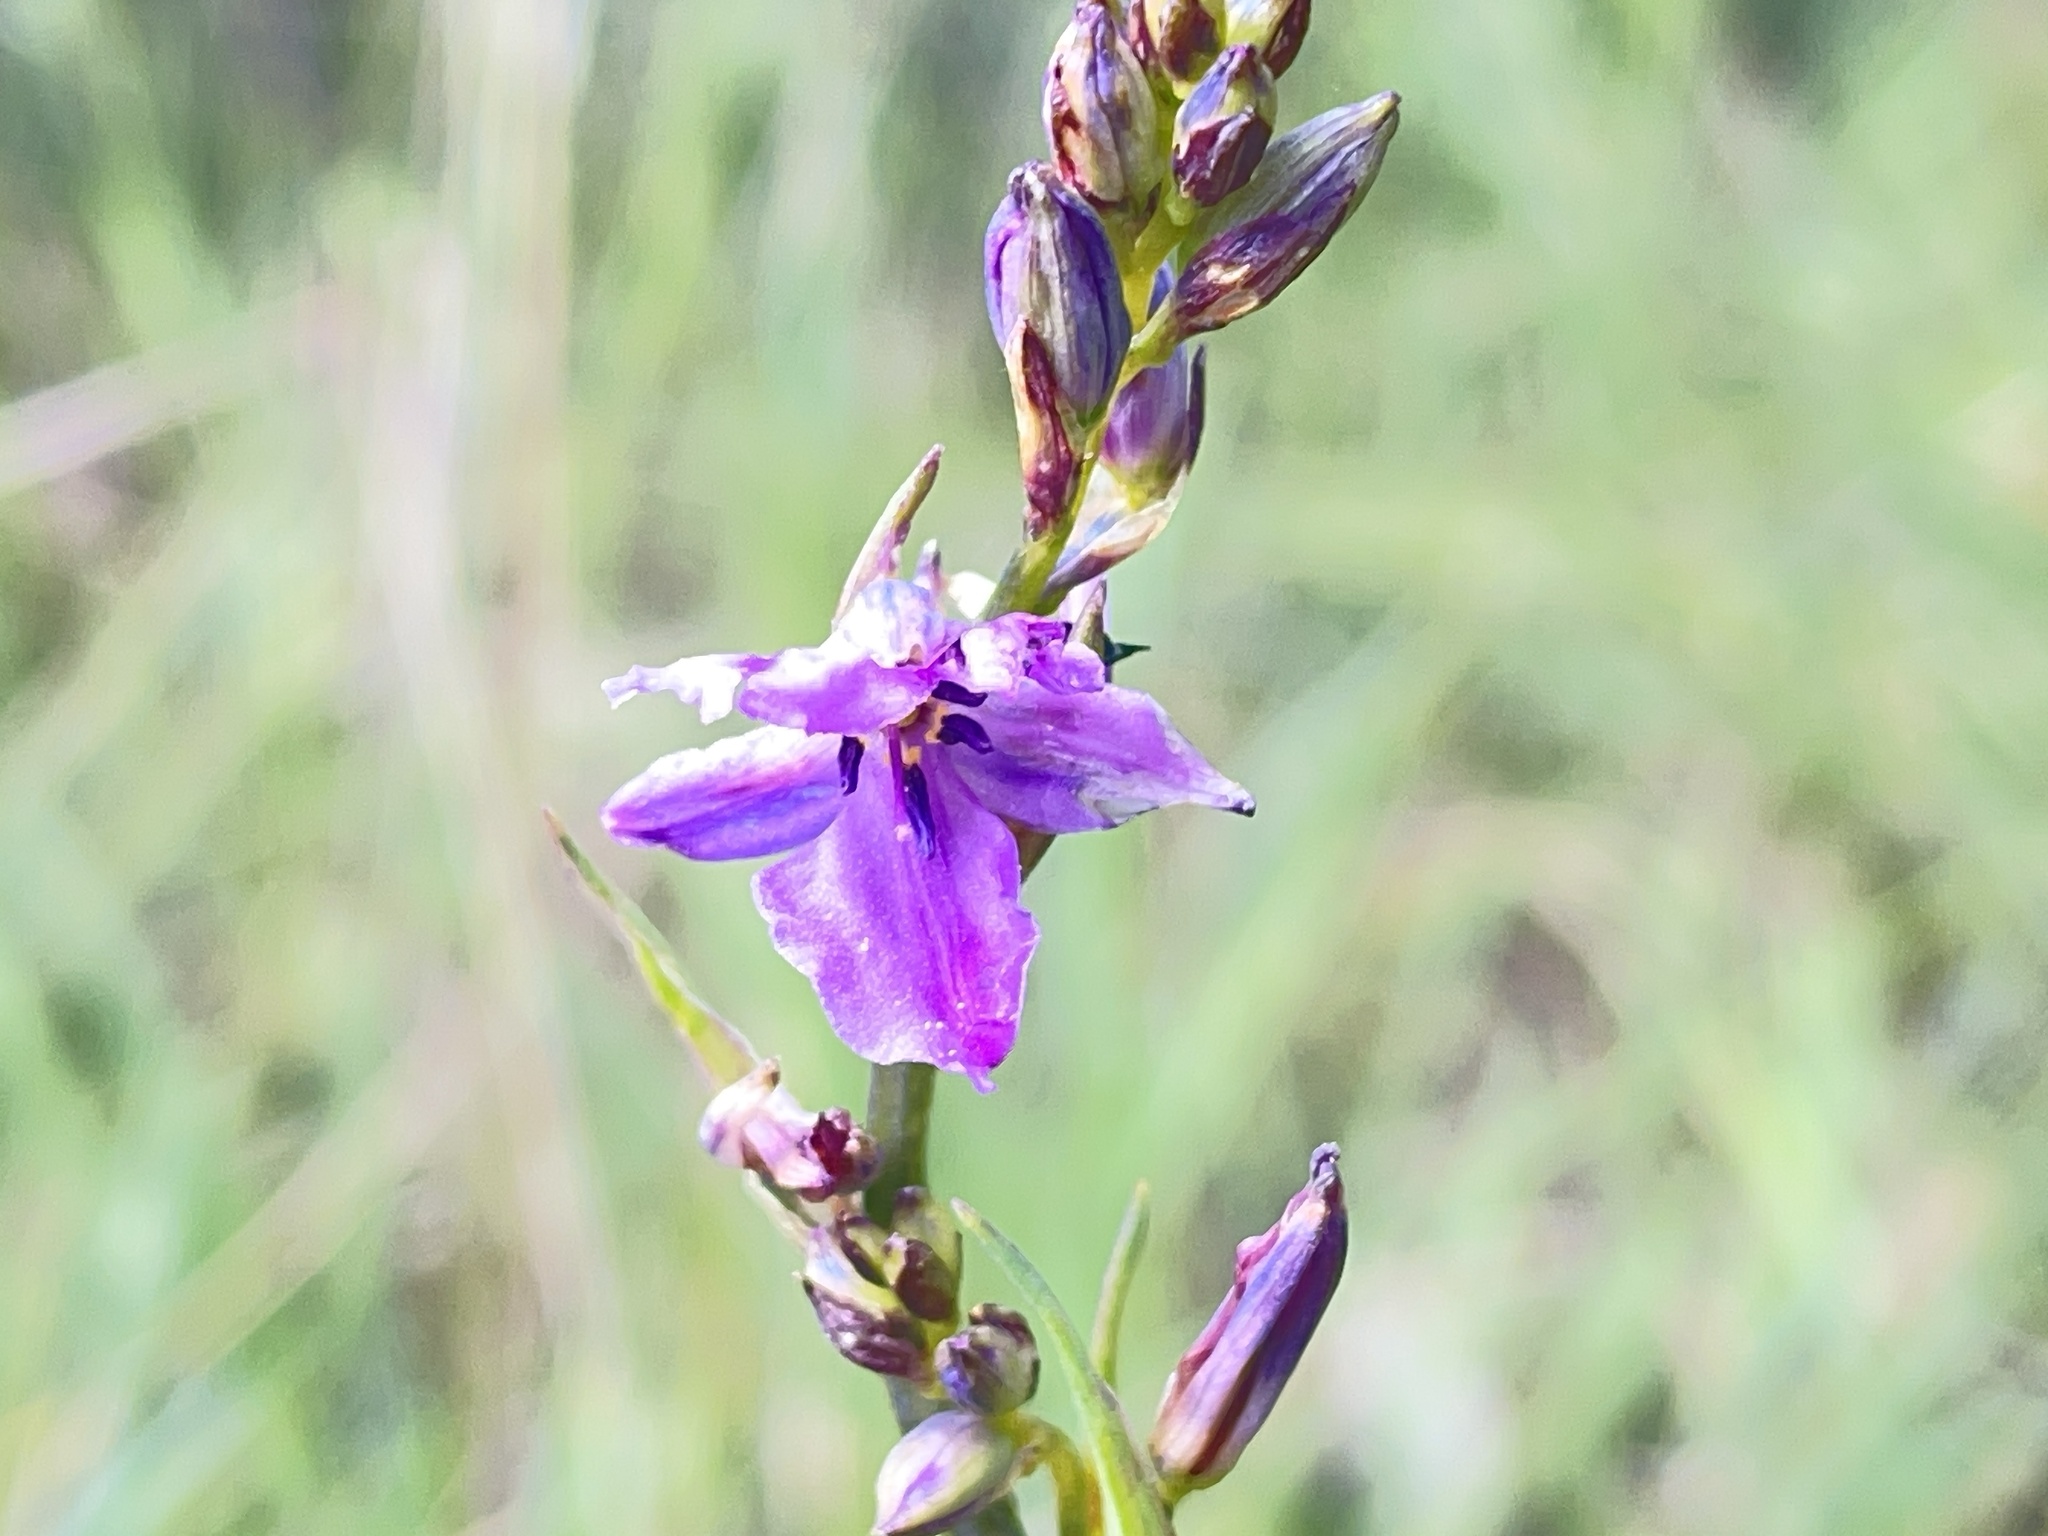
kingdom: Plantae
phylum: Tracheophyta
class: Liliopsida
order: Asparagales
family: Asparagaceae
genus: Arthropodium
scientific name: Arthropodium strictum
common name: Chocolate-lily
